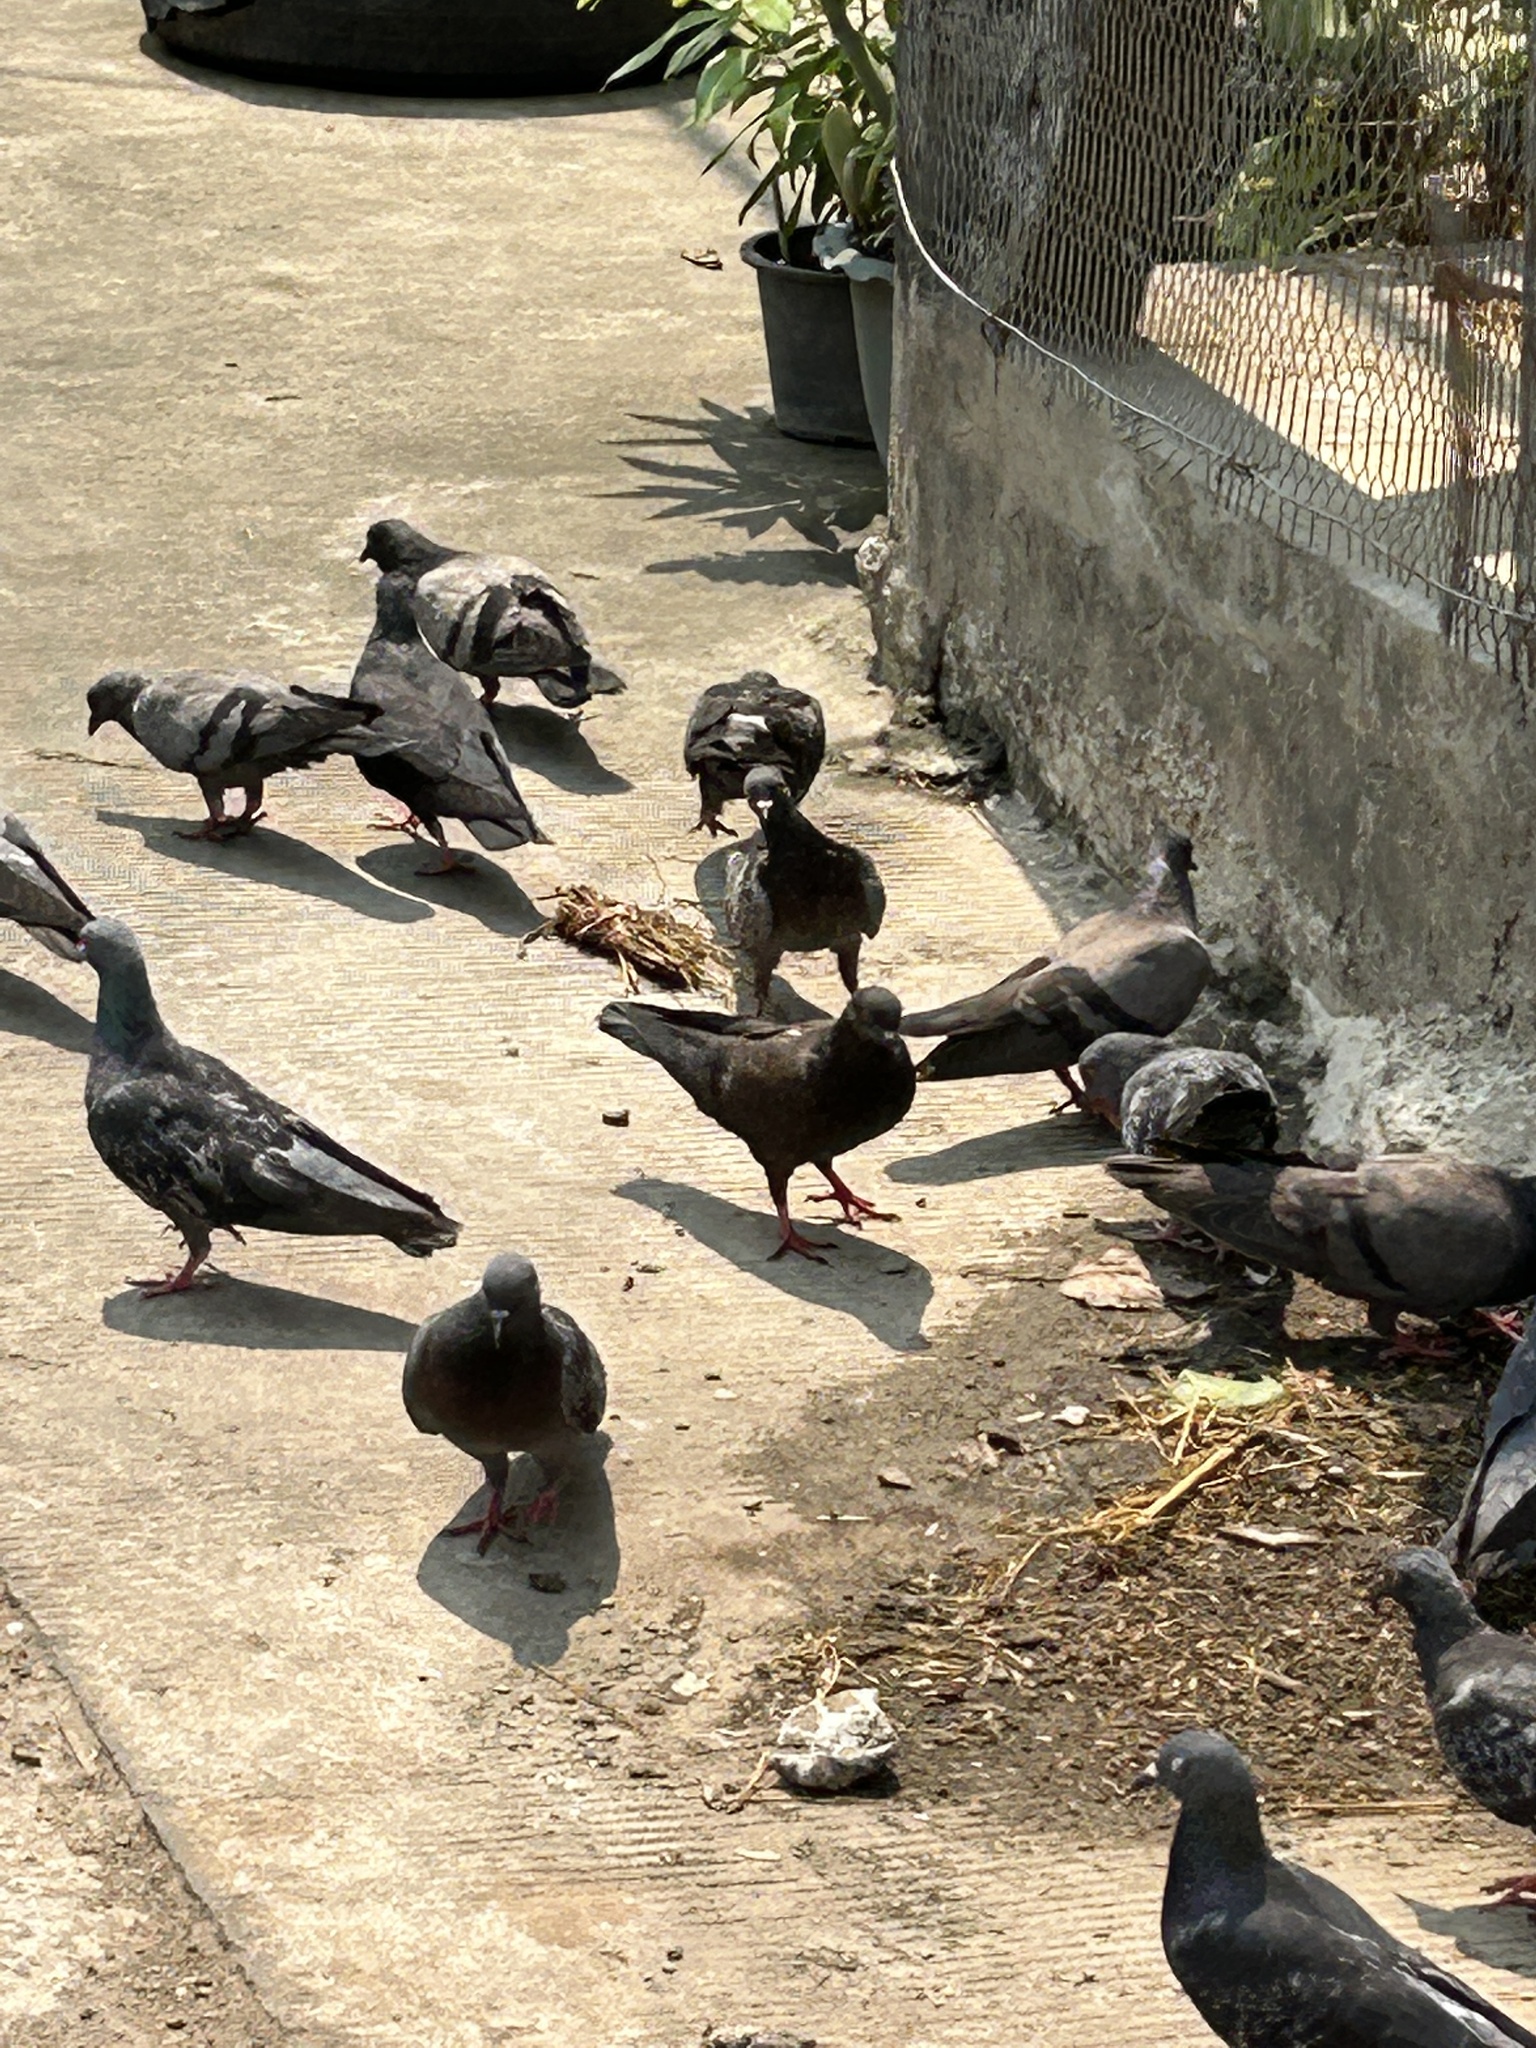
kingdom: Animalia
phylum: Chordata
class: Aves
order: Columbiformes
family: Columbidae
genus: Columba
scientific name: Columba livia
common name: Rock pigeon
